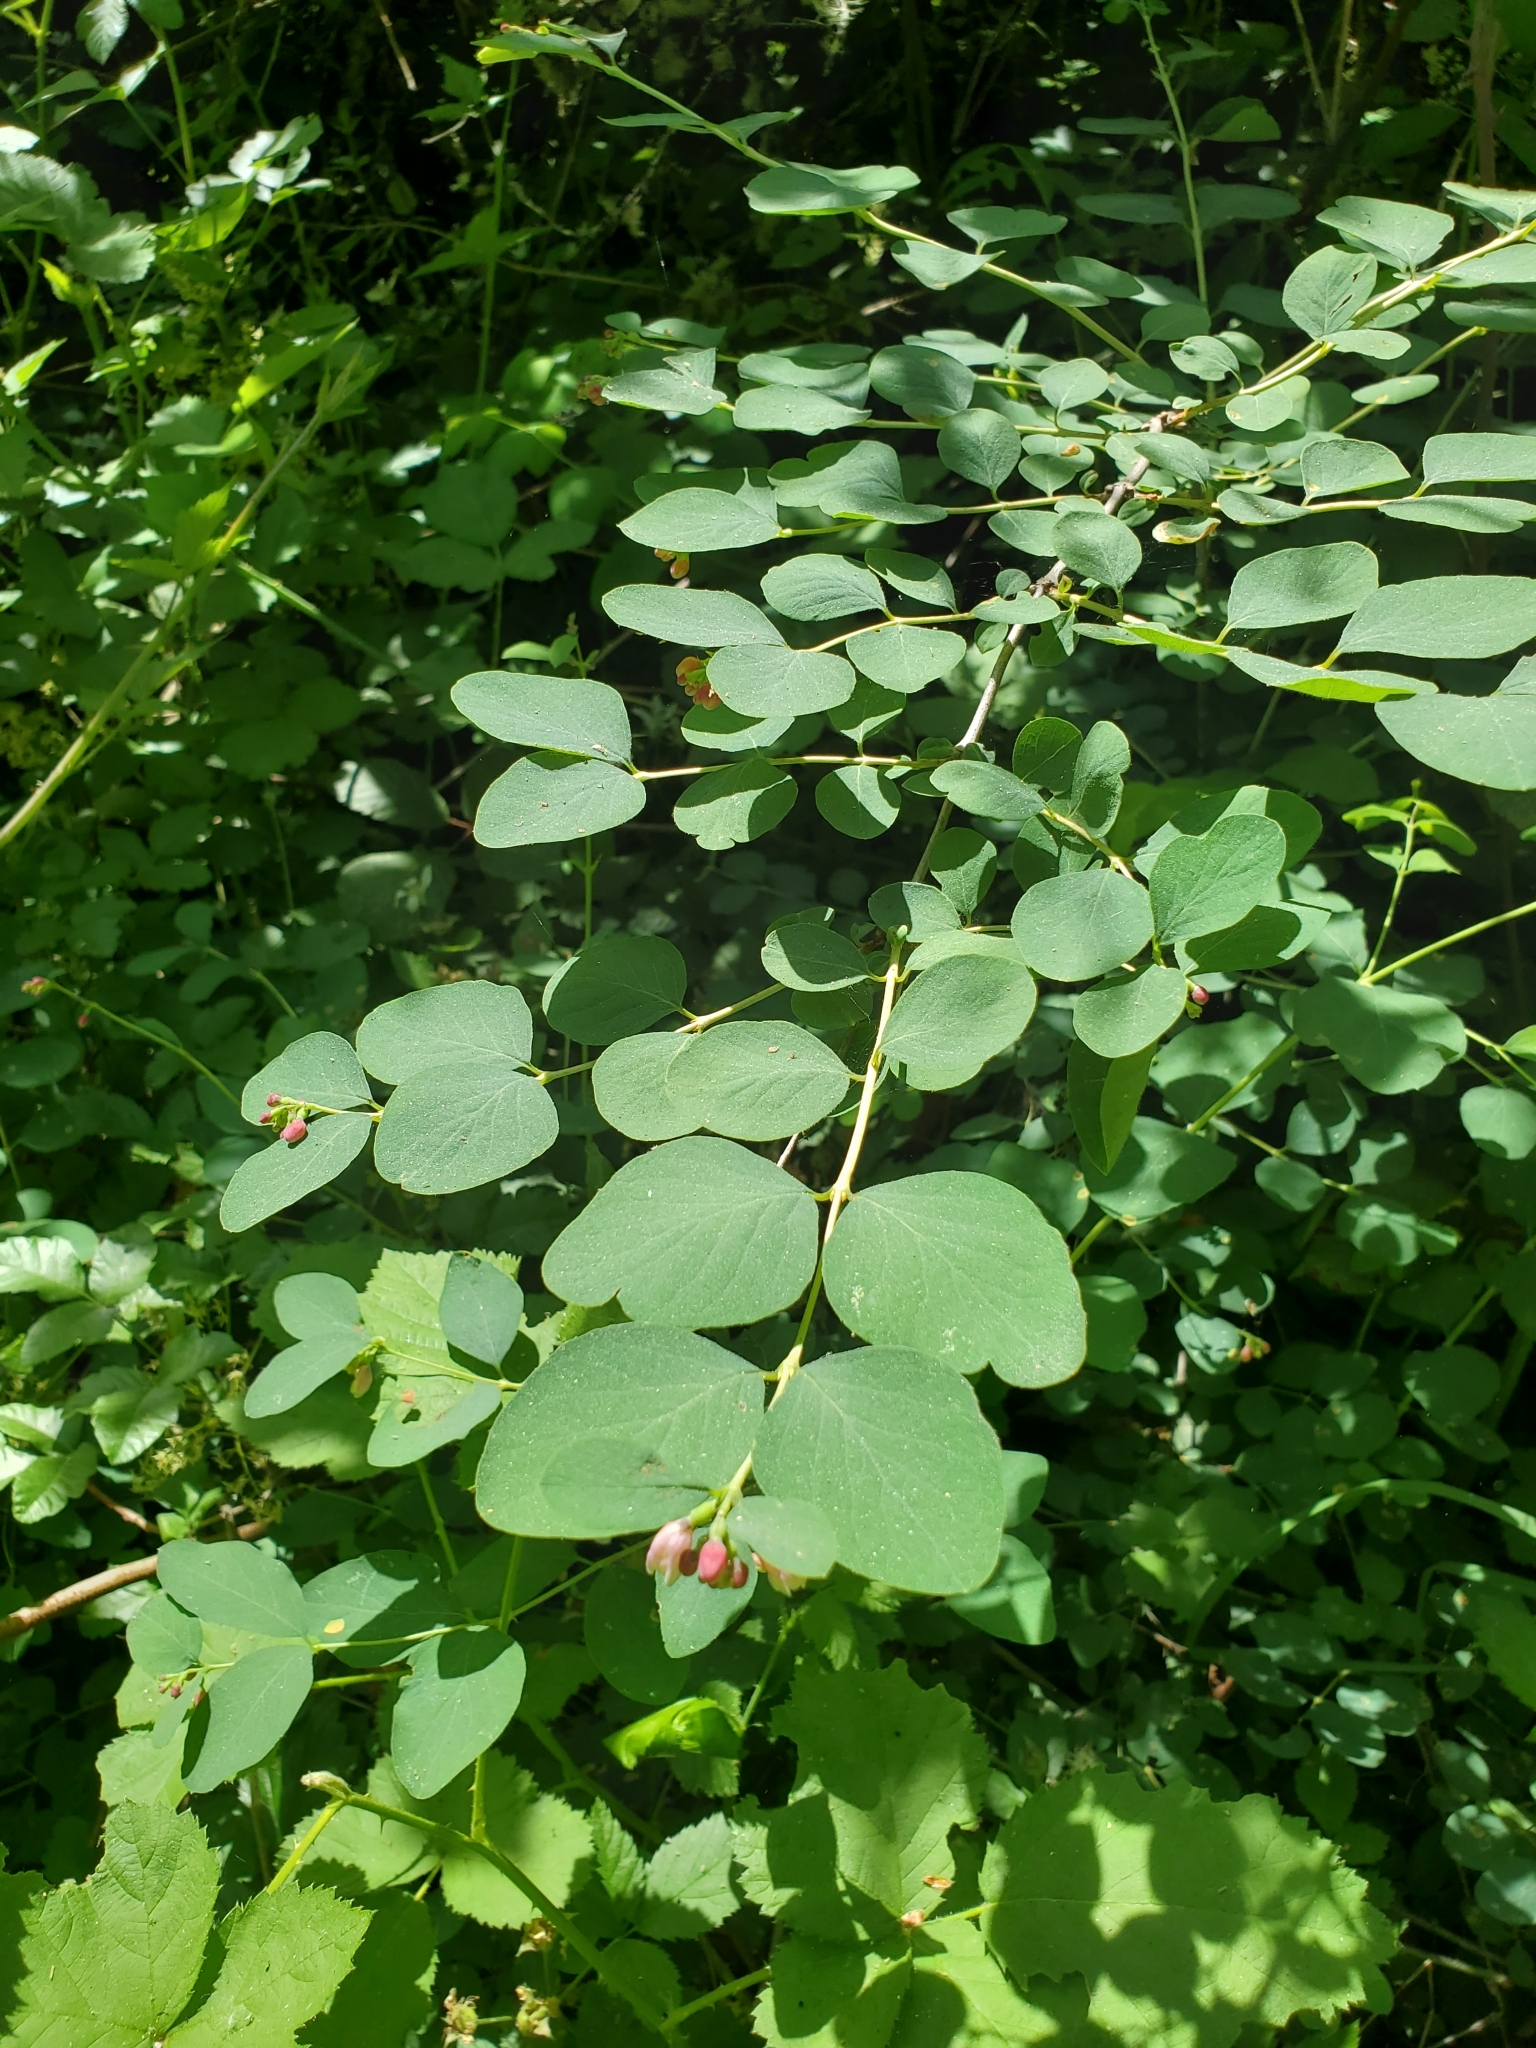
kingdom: Plantae
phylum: Tracheophyta
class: Magnoliopsida
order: Dipsacales
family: Caprifoliaceae
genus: Symphoricarpos
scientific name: Symphoricarpos albus
